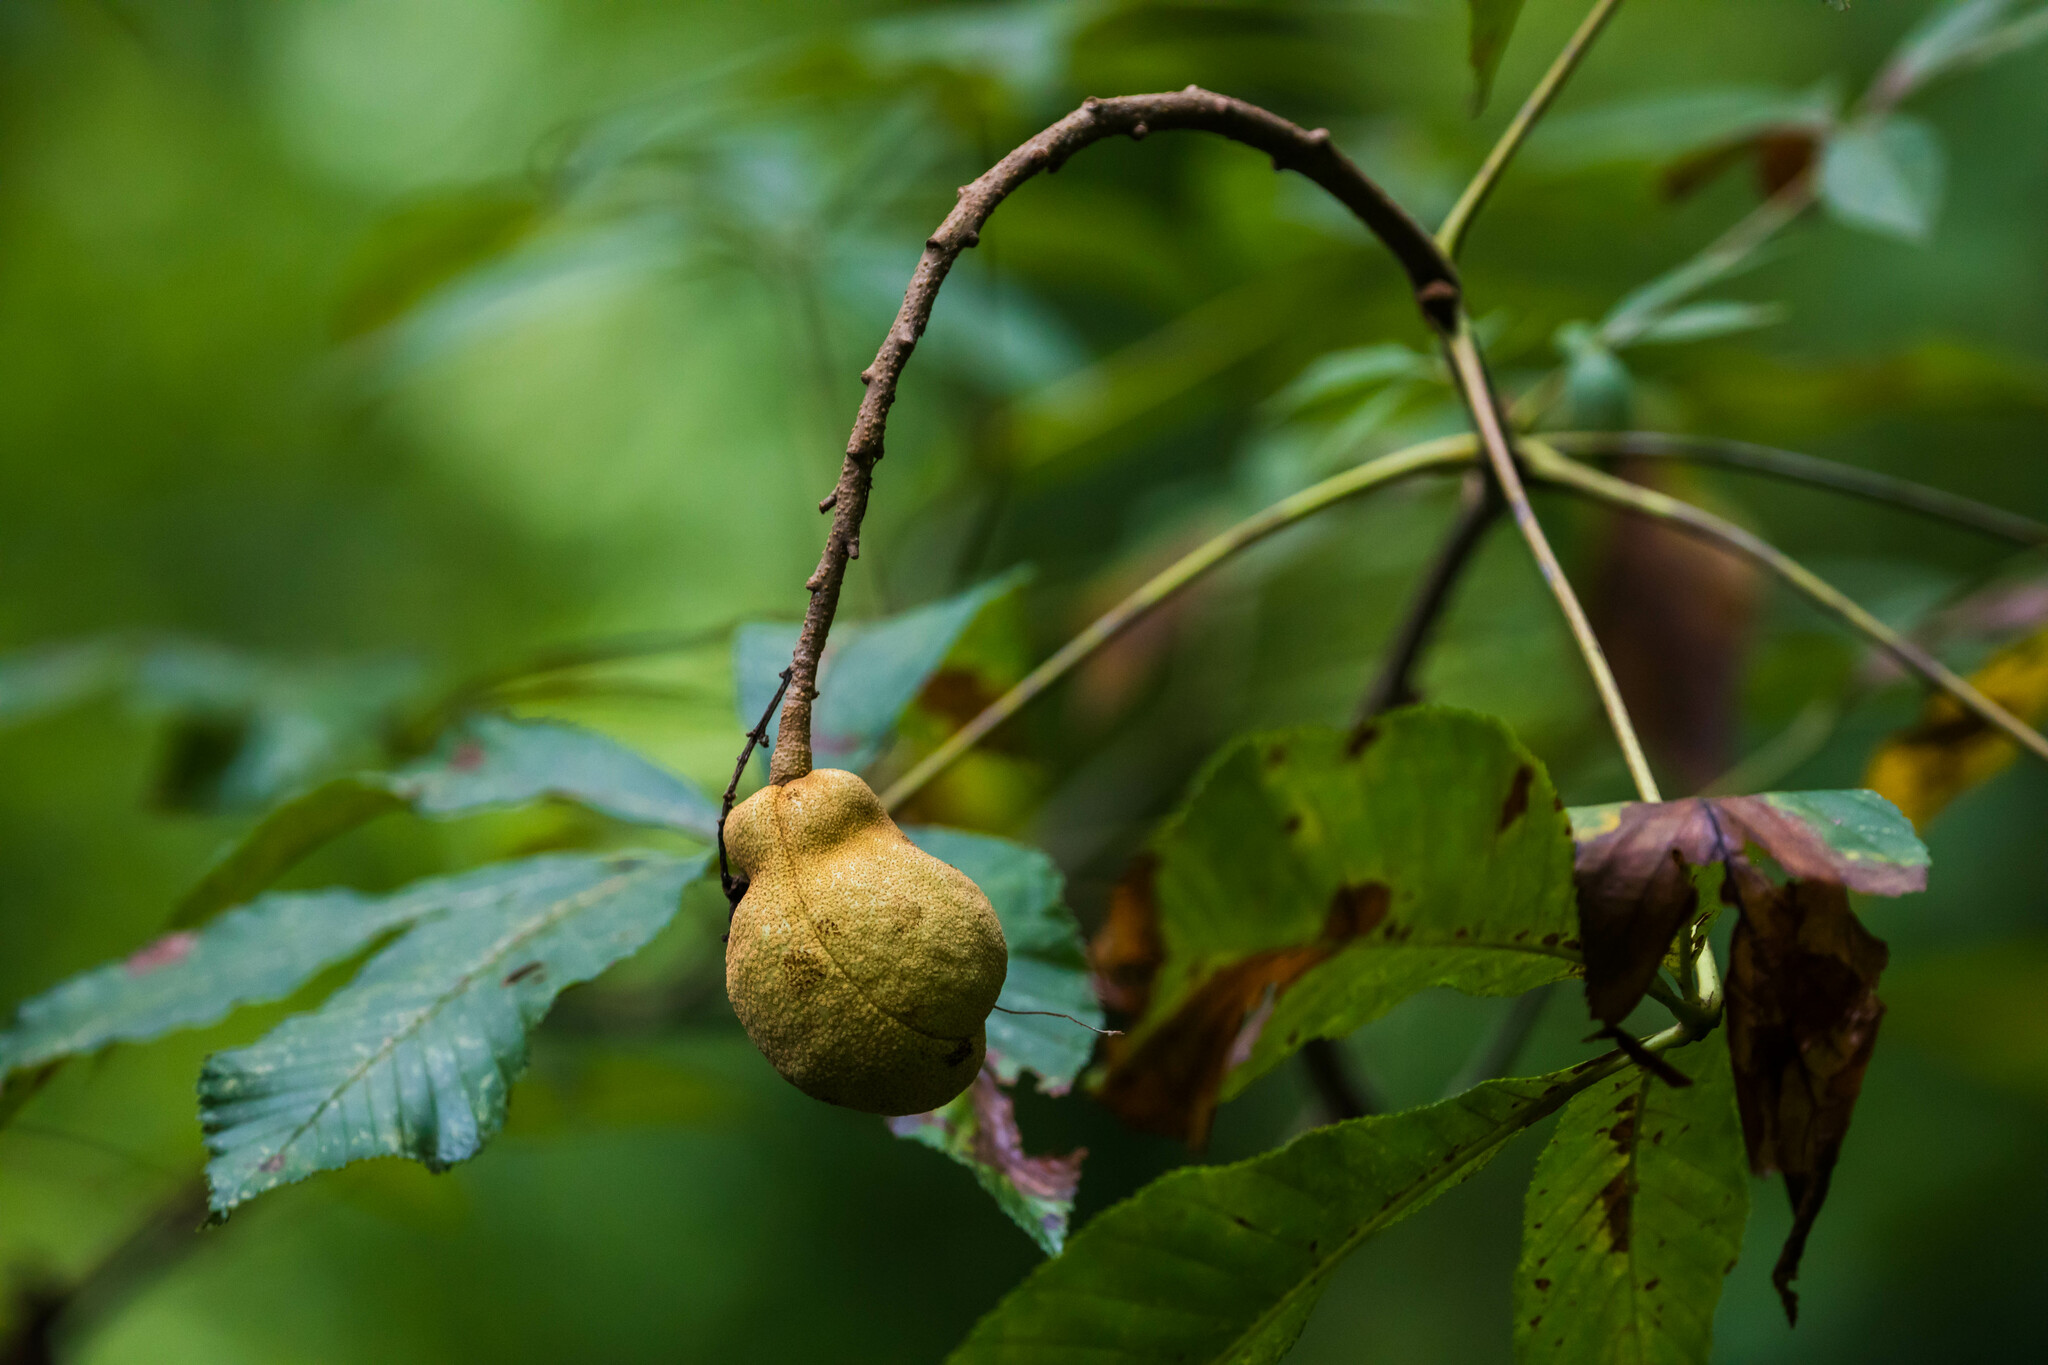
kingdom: Plantae
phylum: Tracheophyta
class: Magnoliopsida
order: Sapindales
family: Sapindaceae
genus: Aesculus
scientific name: Aesculus pavia
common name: Red buckeye
